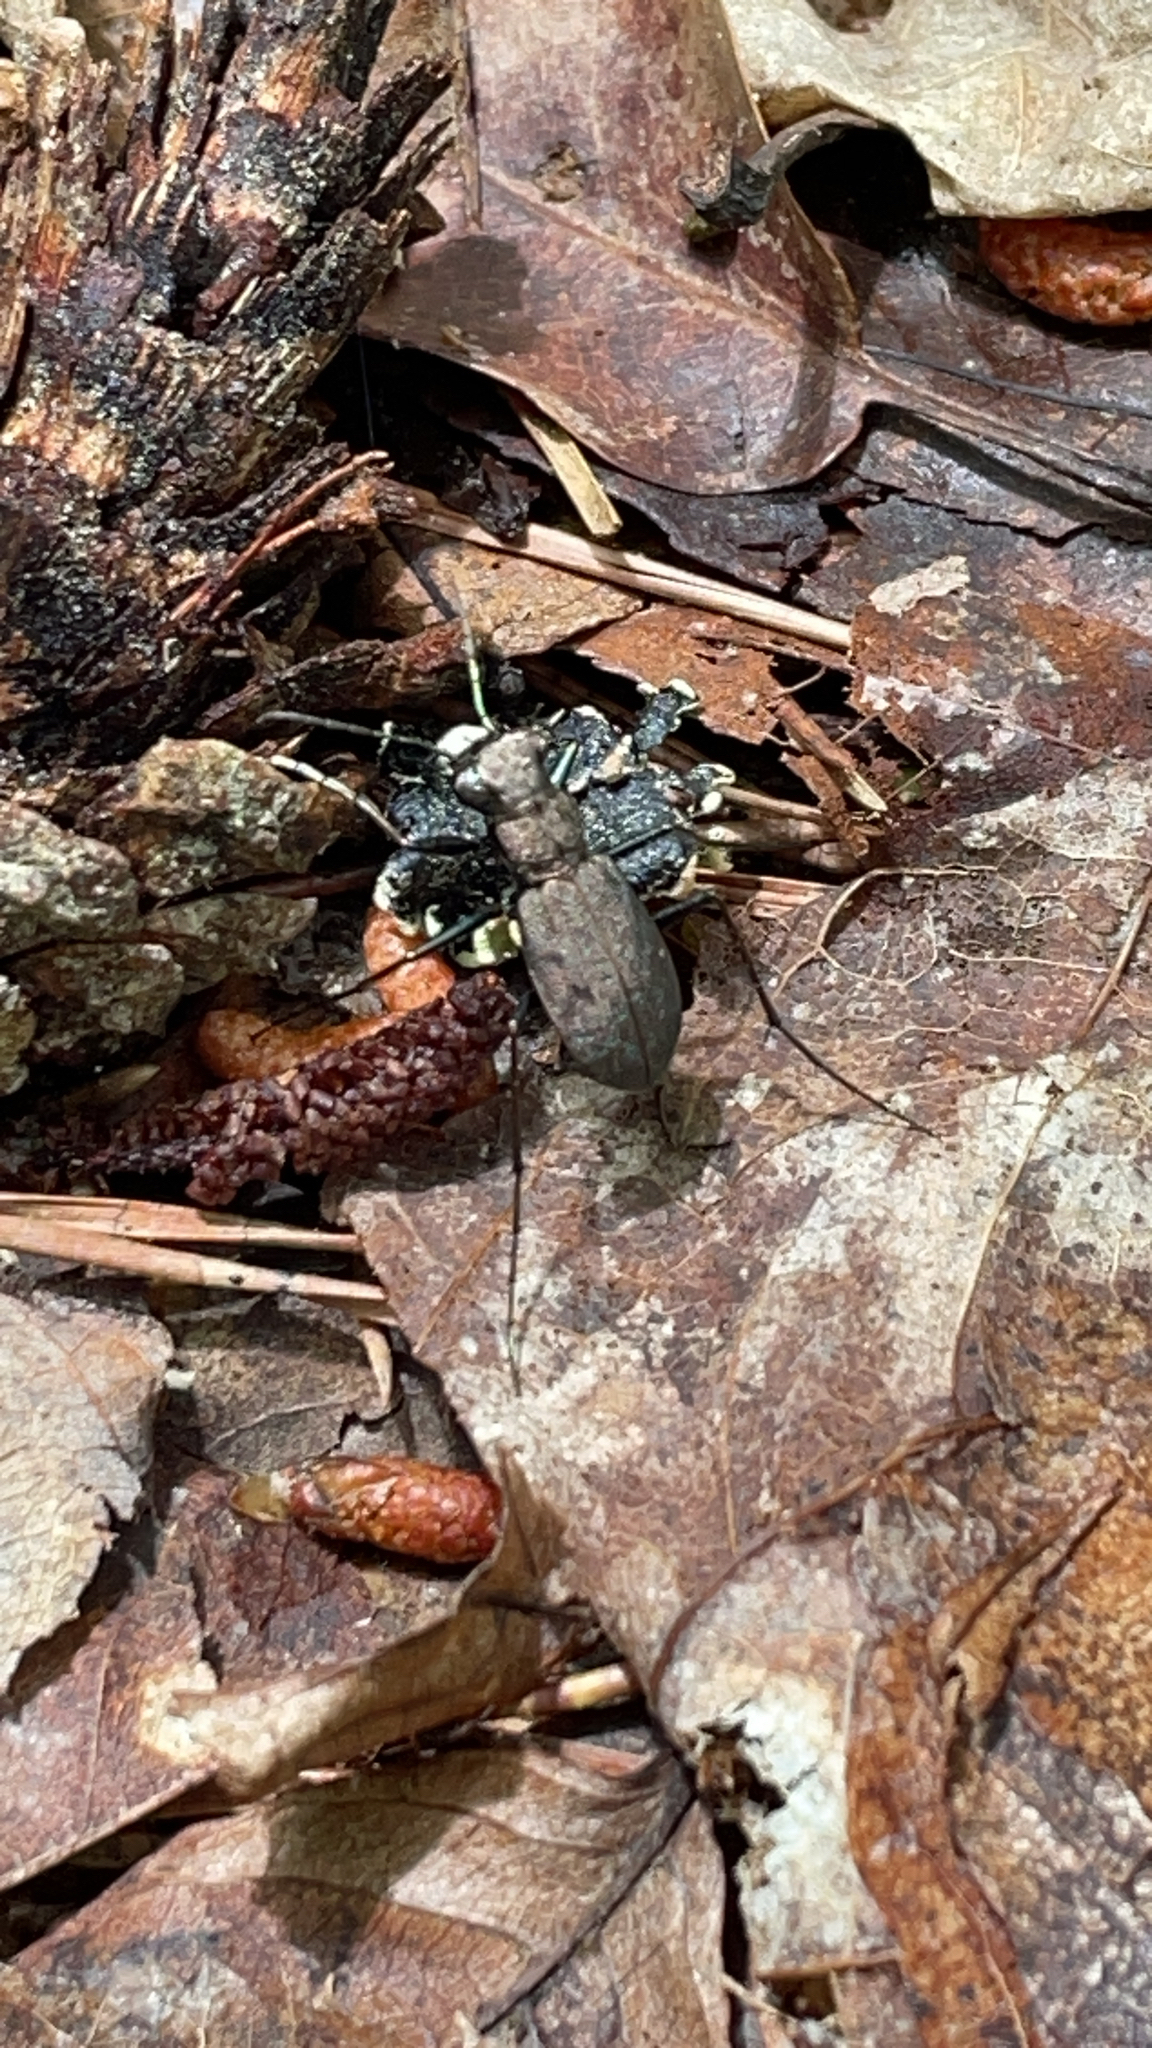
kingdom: Animalia
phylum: Arthropoda
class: Insecta
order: Coleoptera
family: Carabidae
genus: Cylindera
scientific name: Cylindera unipunctata
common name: One-spotted tiger beetle
